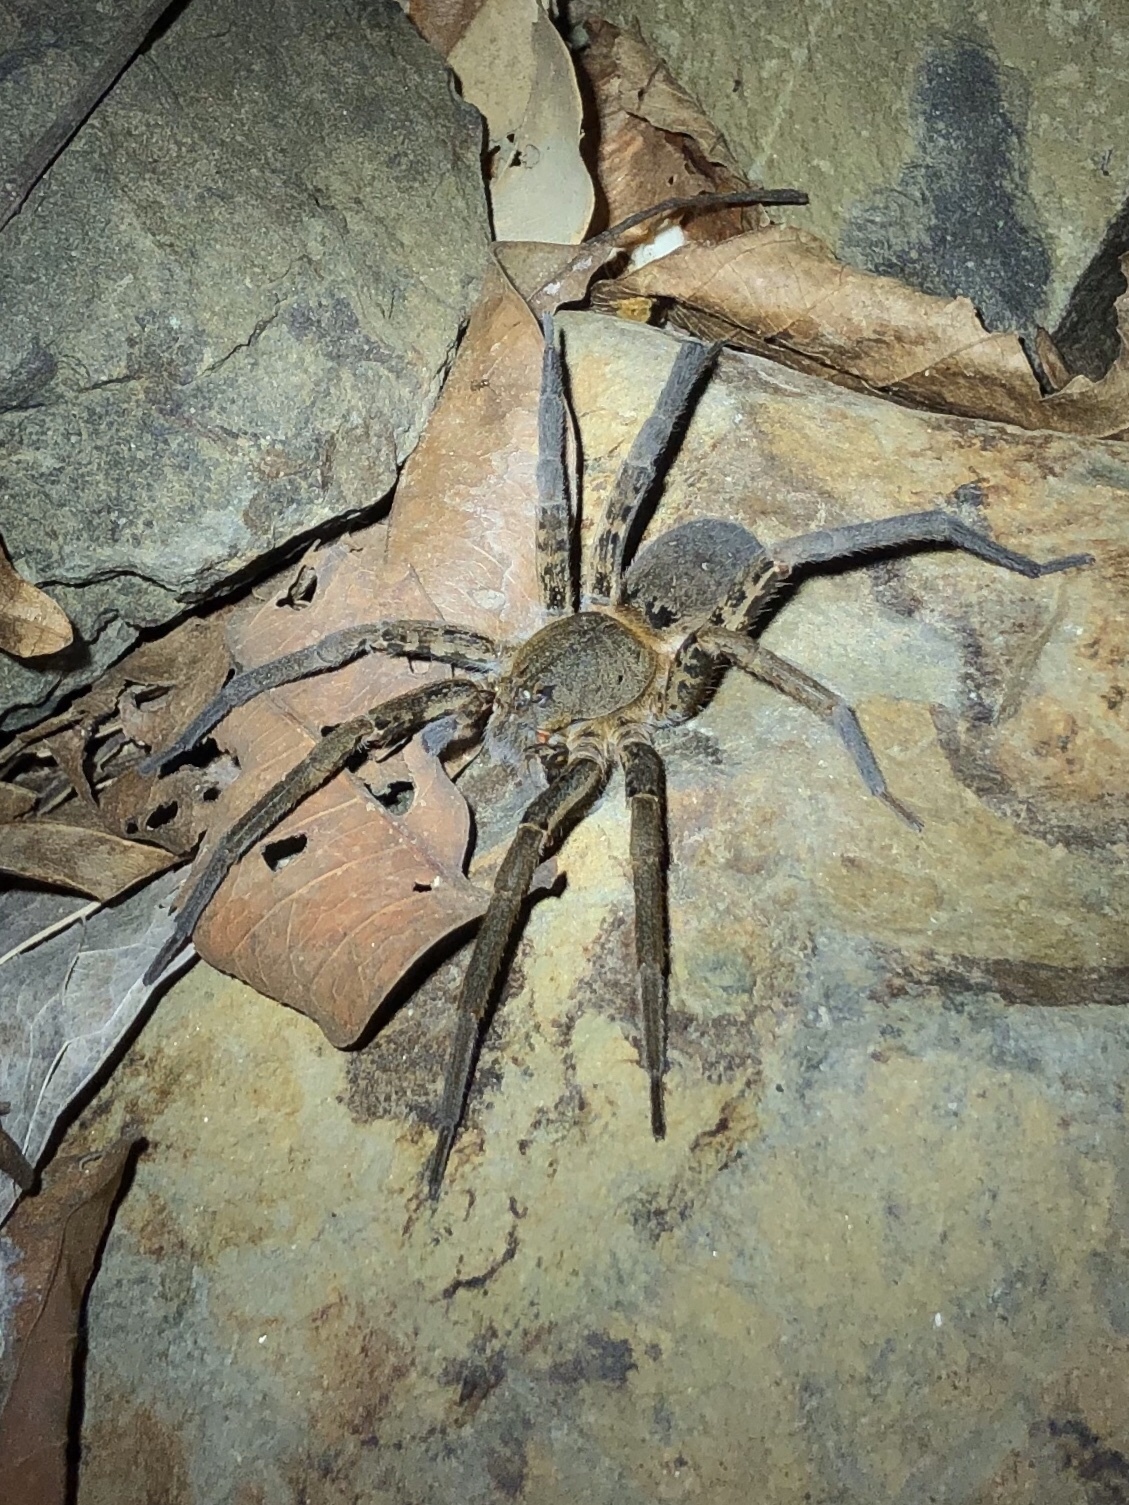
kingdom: Animalia
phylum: Arthropoda
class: Arachnida
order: Araneae
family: Ctenidae
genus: Ancylometes
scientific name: Ancylometes bogotensis
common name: Wandering spiders
